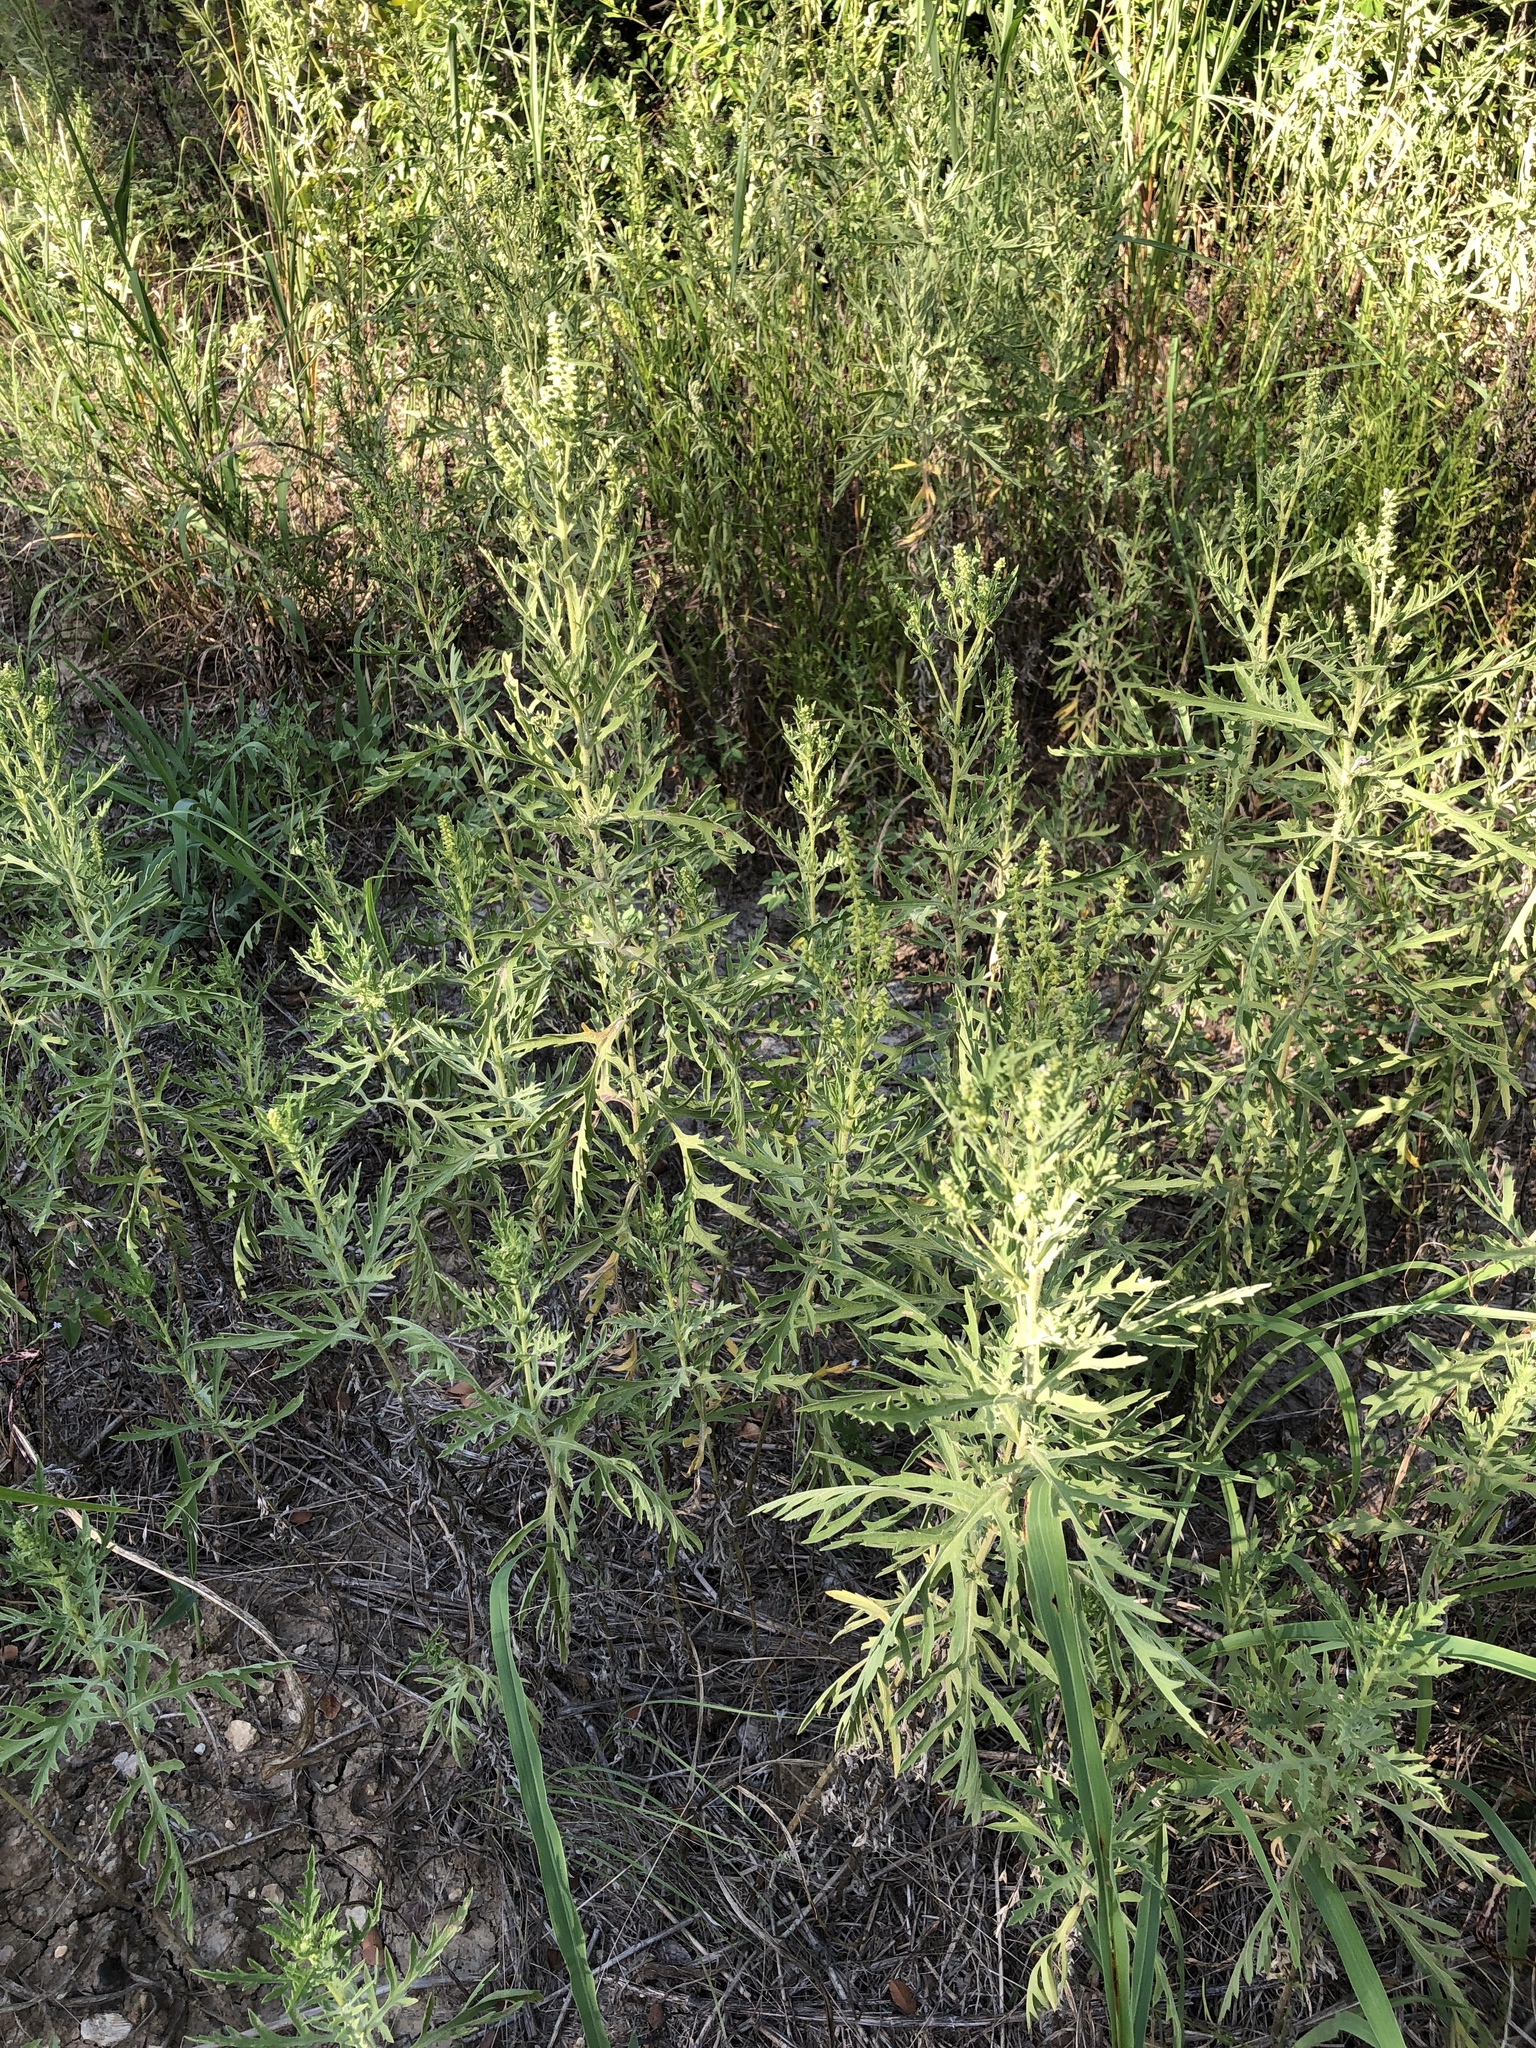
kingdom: Plantae
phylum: Tracheophyta
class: Magnoliopsida
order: Asterales
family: Asteraceae
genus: Ambrosia
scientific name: Ambrosia psilostachya
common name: Perennial ragweed
